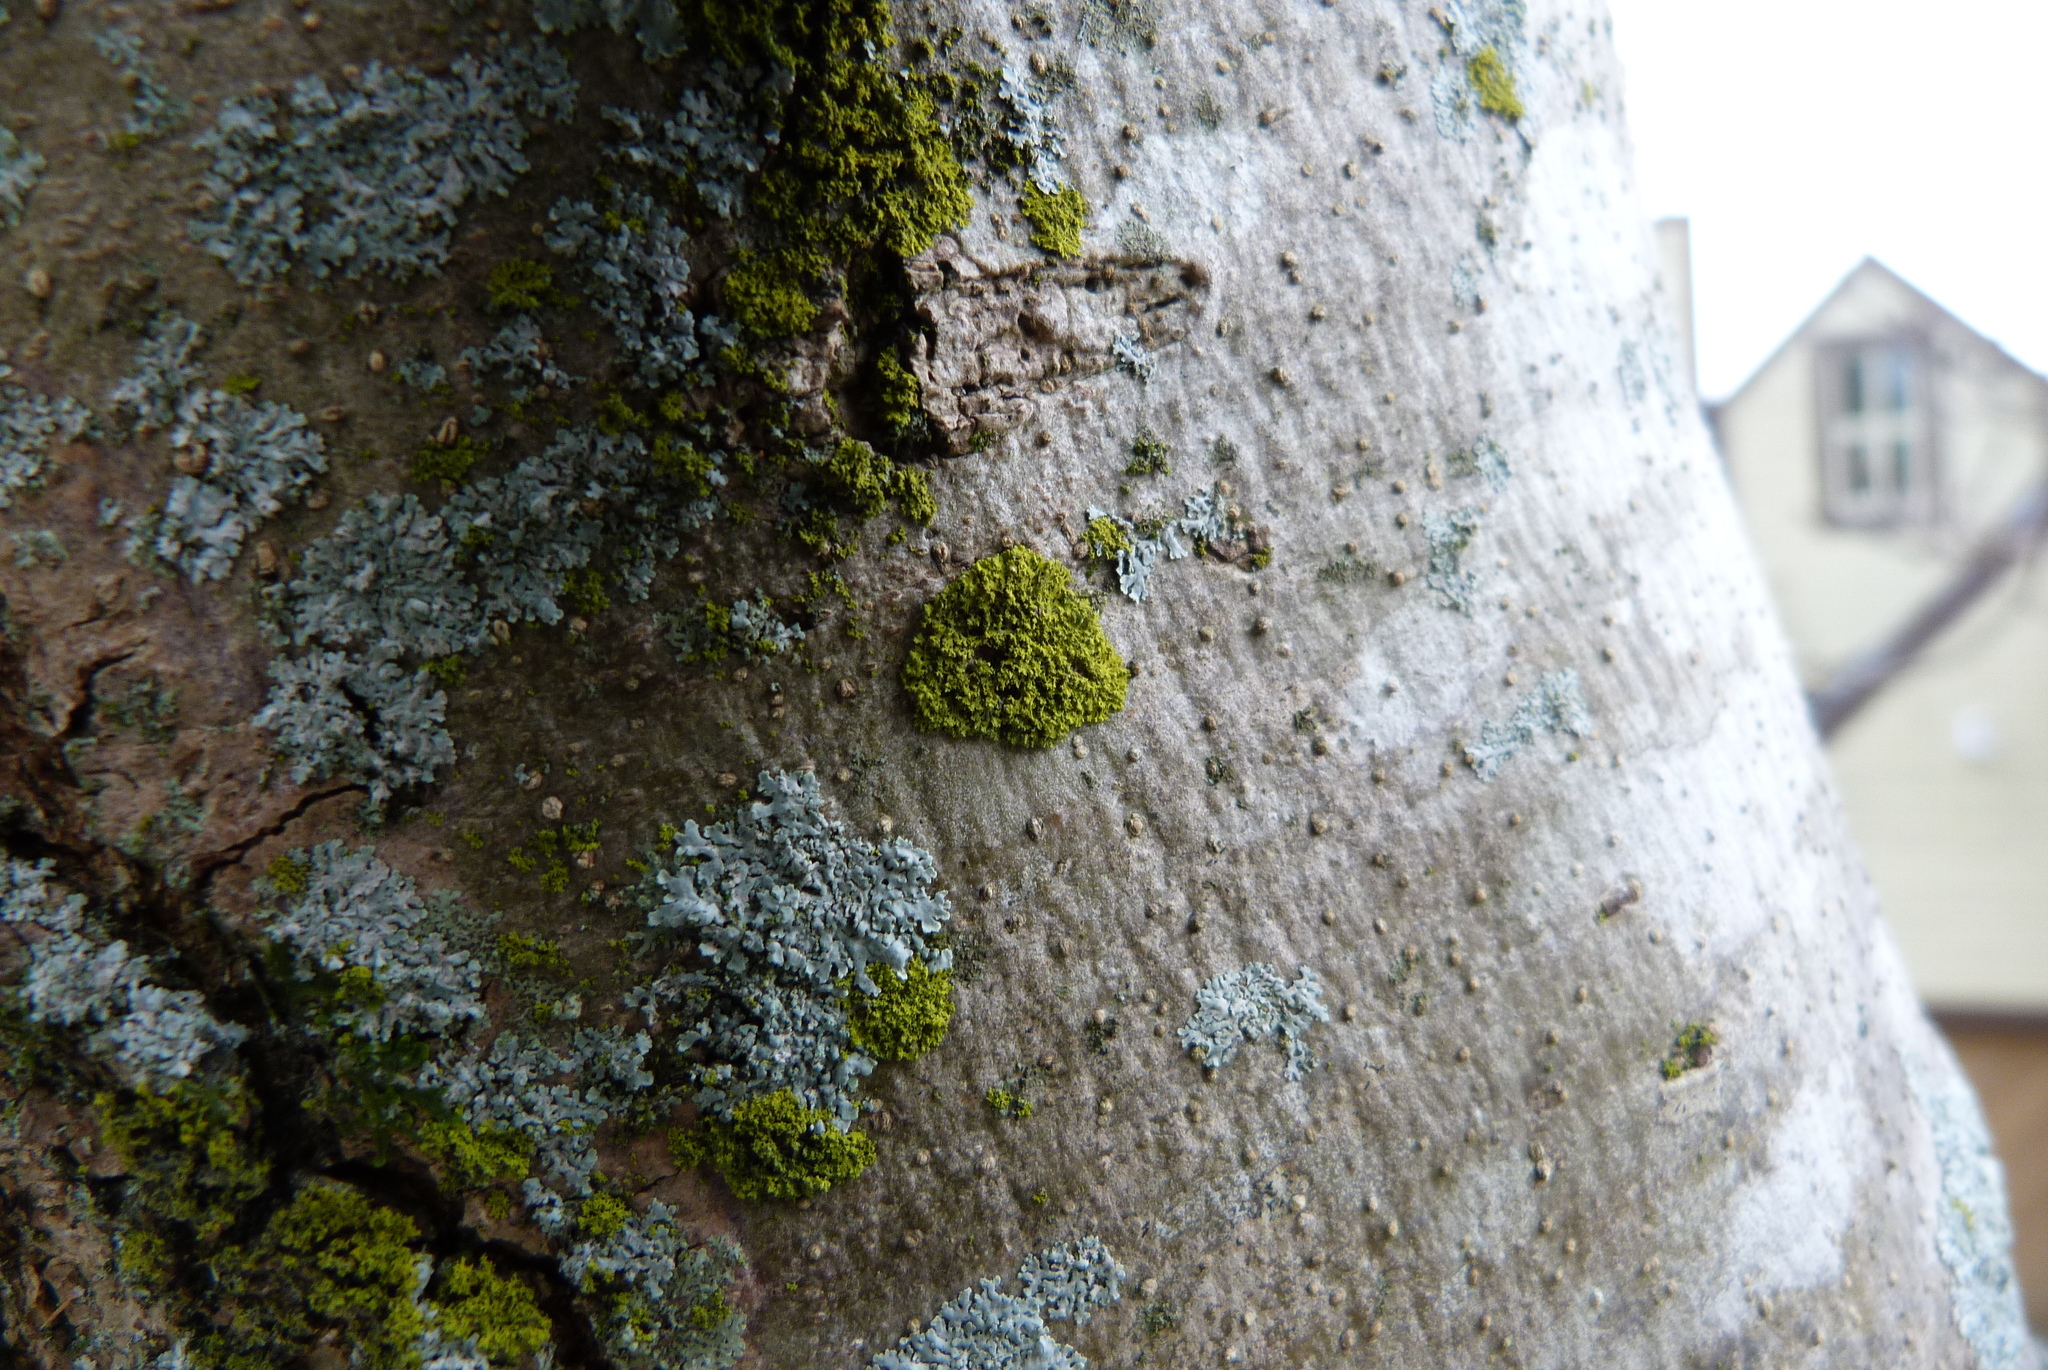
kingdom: Fungi
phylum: Ascomycota
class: Candelariomycetes
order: Candelariales
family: Candelariaceae
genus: Candelaria
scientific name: Candelaria concolor
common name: Candleflame lichen
